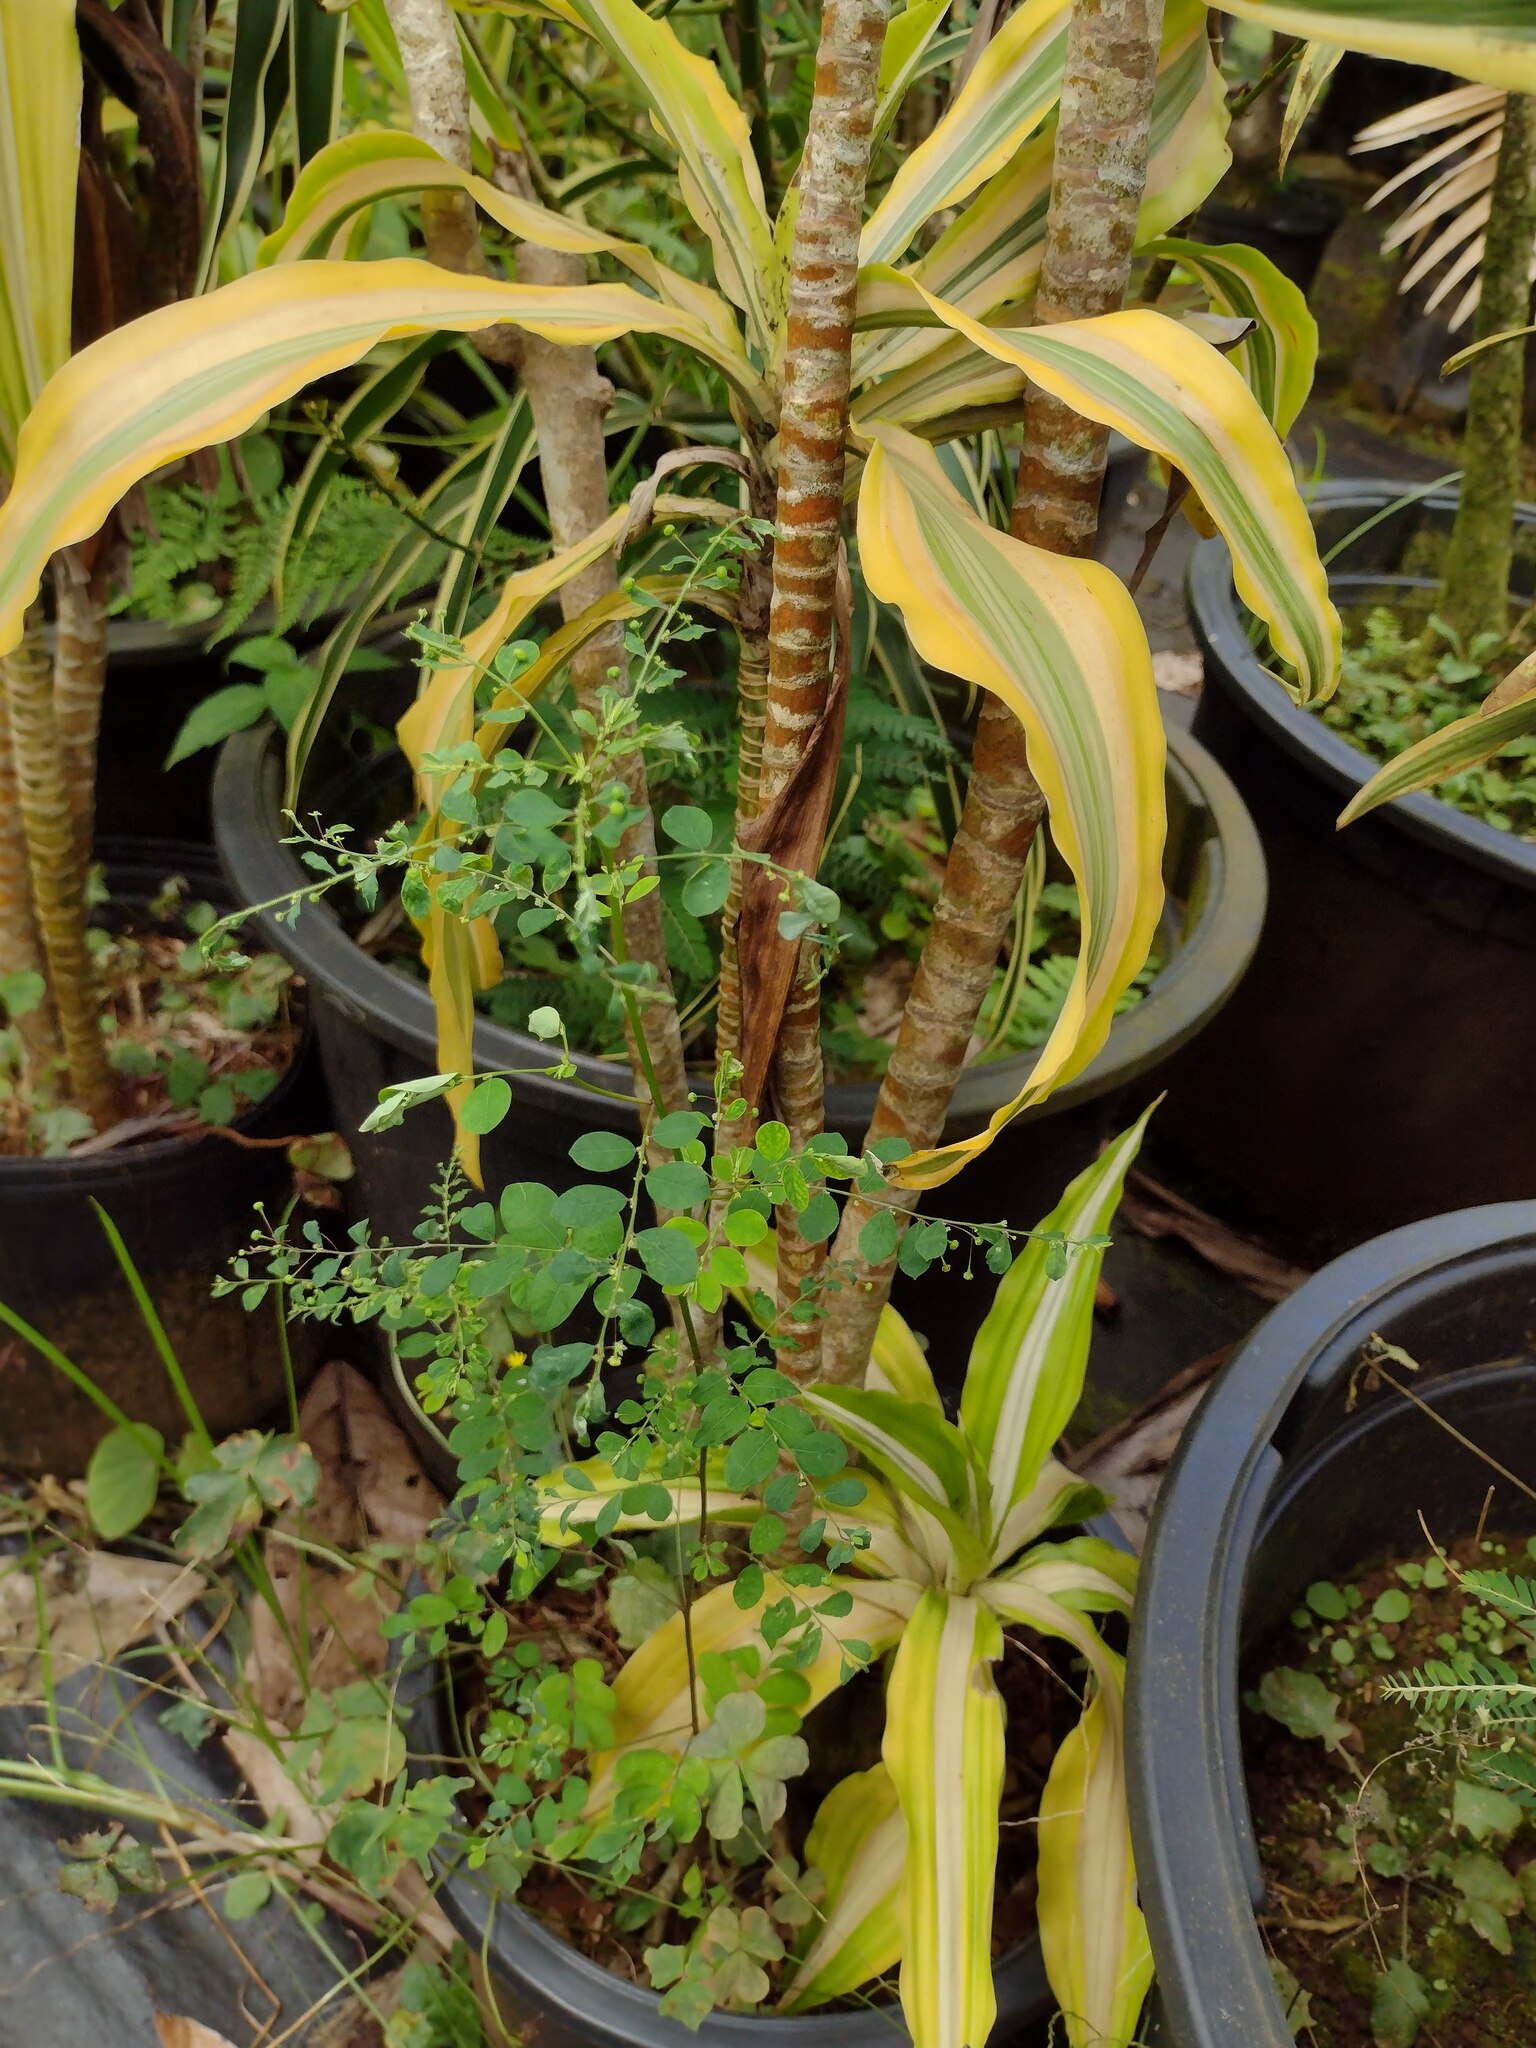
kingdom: Plantae
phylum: Tracheophyta
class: Magnoliopsida
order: Malpighiales
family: Phyllanthaceae
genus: Phyllanthus
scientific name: Phyllanthus tenellus
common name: Mascarene island leaf-flower
